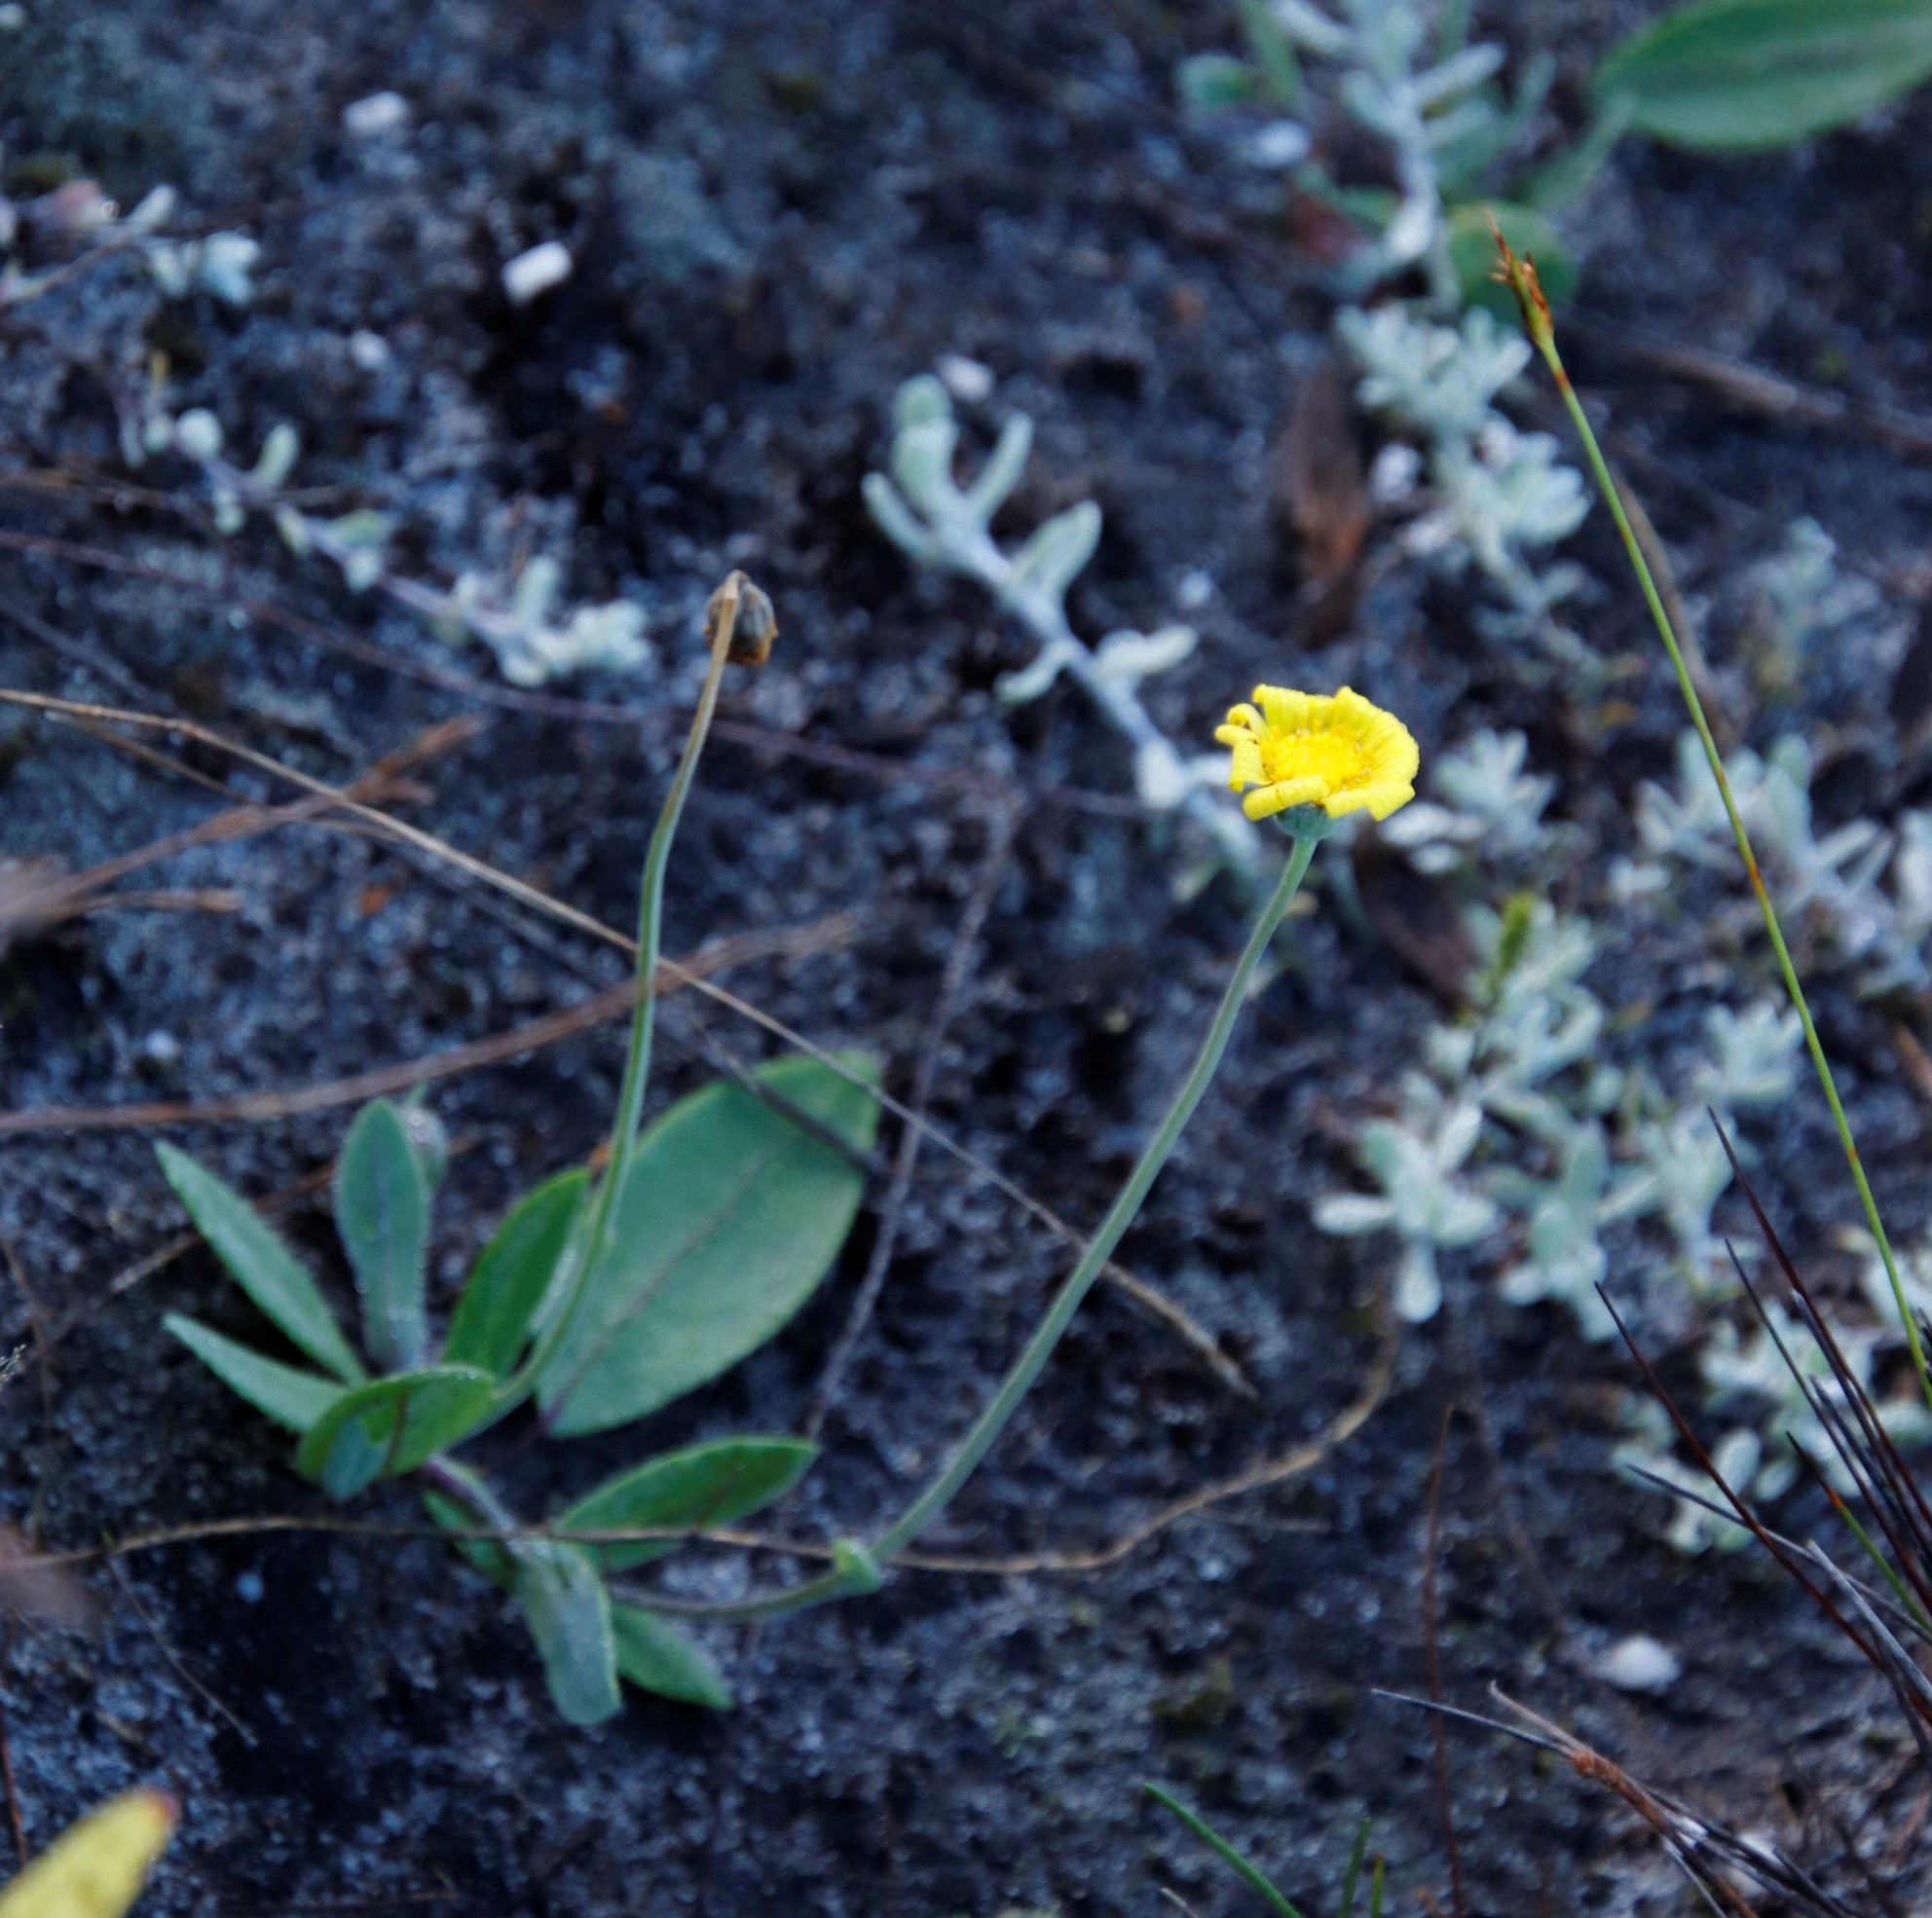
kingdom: Plantae
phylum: Tracheophyta
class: Magnoliopsida
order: Asterales
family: Asteraceae
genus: Othonna
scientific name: Othonna bulbosa
